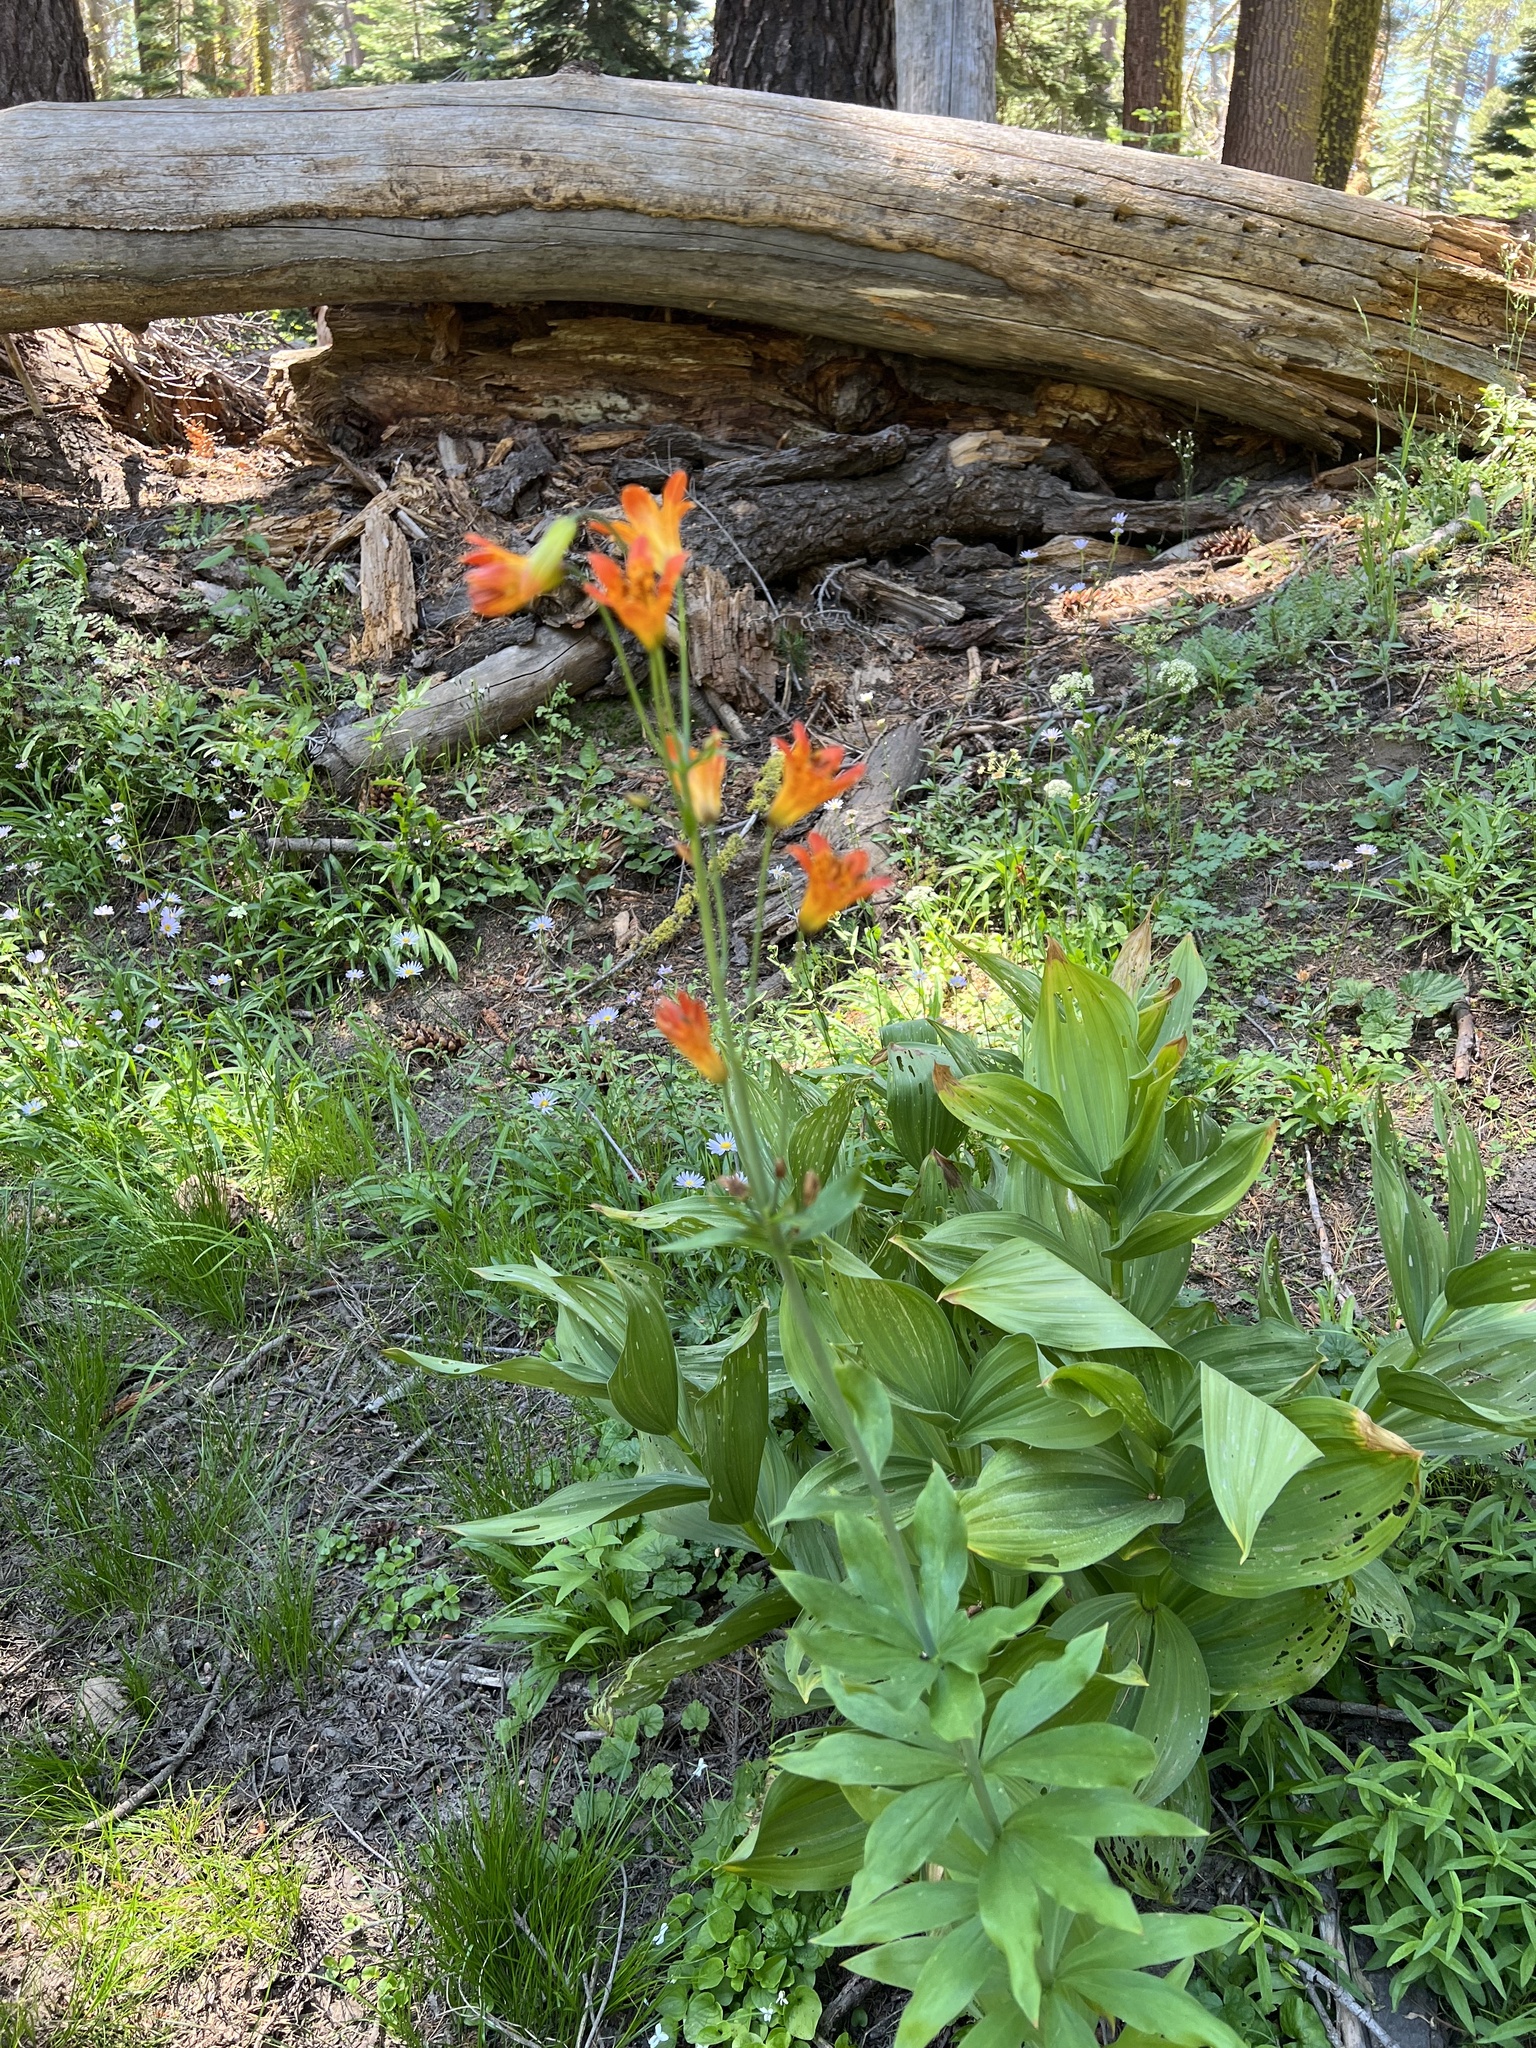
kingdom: Plantae
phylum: Tracheophyta
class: Liliopsida
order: Liliales
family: Liliaceae
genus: Lilium
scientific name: Lilium parvum
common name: Alpine lily
